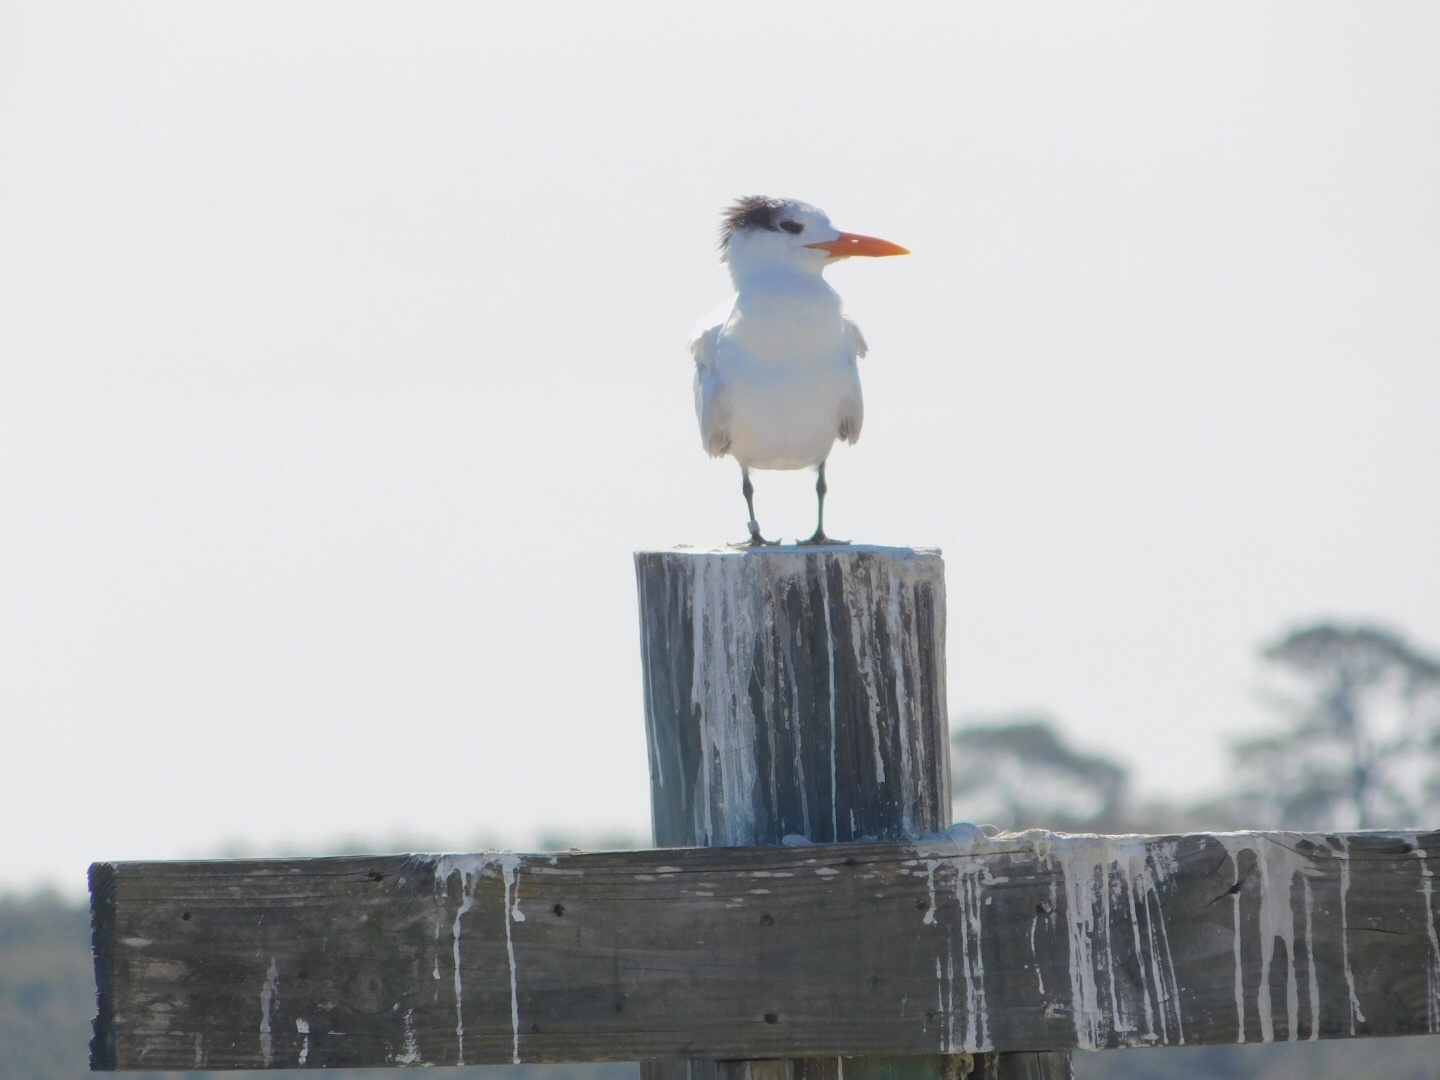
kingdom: Animalia
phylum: Chordata
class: Aves
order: Charadriiformes
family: Laridae
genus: Thalasseus
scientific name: Thalasseus maximus
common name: Royal tern
